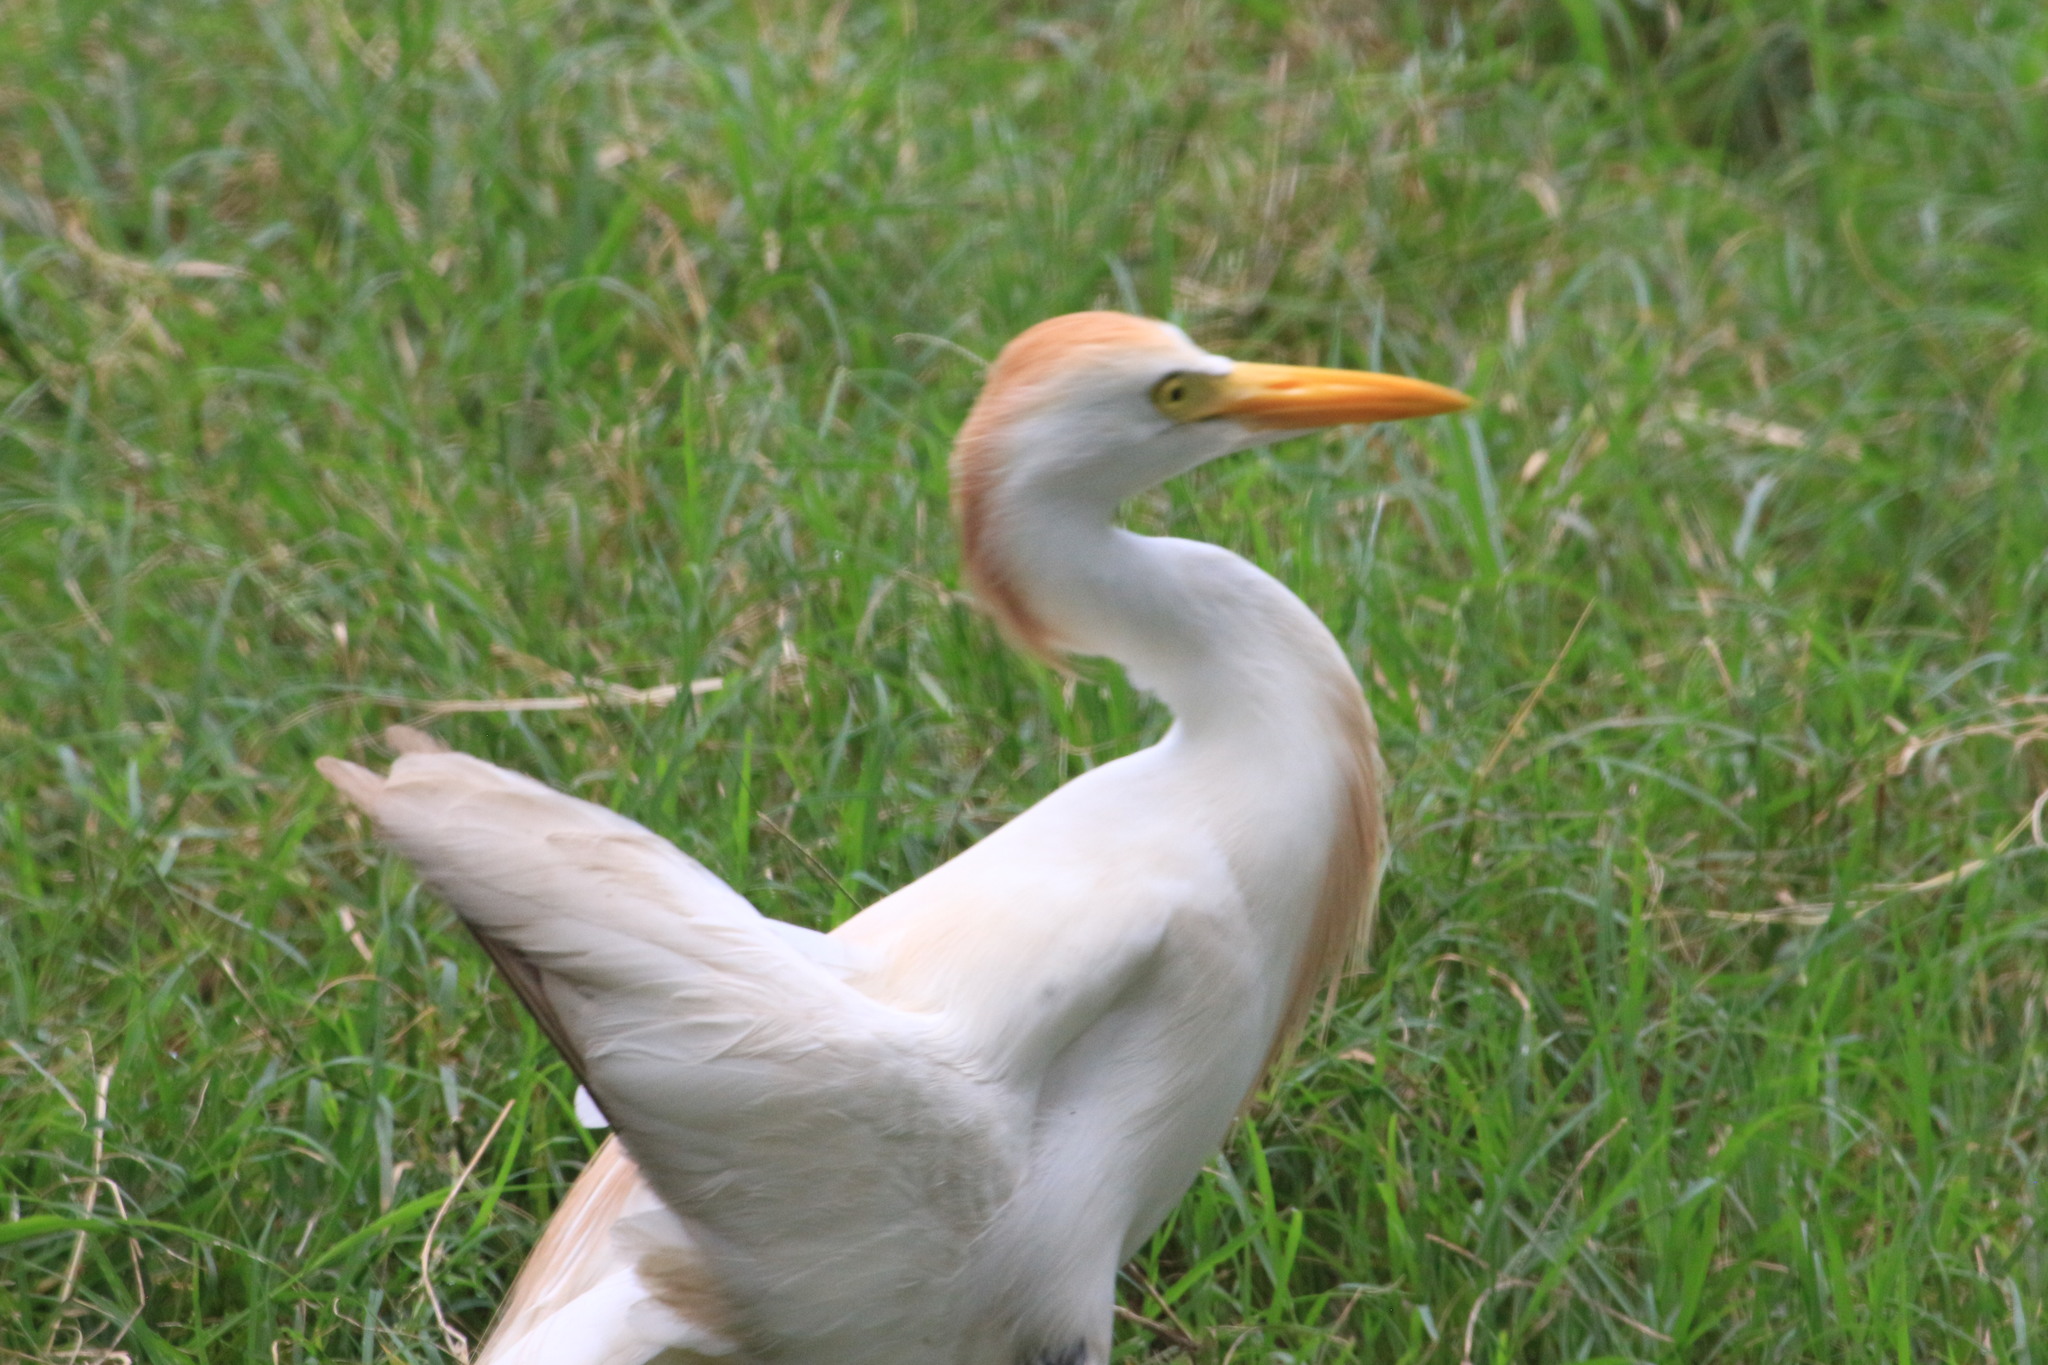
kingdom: Animalia
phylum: Chordata
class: Aves
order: Pelecaniformes
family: Ardeidae
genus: Bubulcus
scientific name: Bubulcus ibis
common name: Cattle egret
